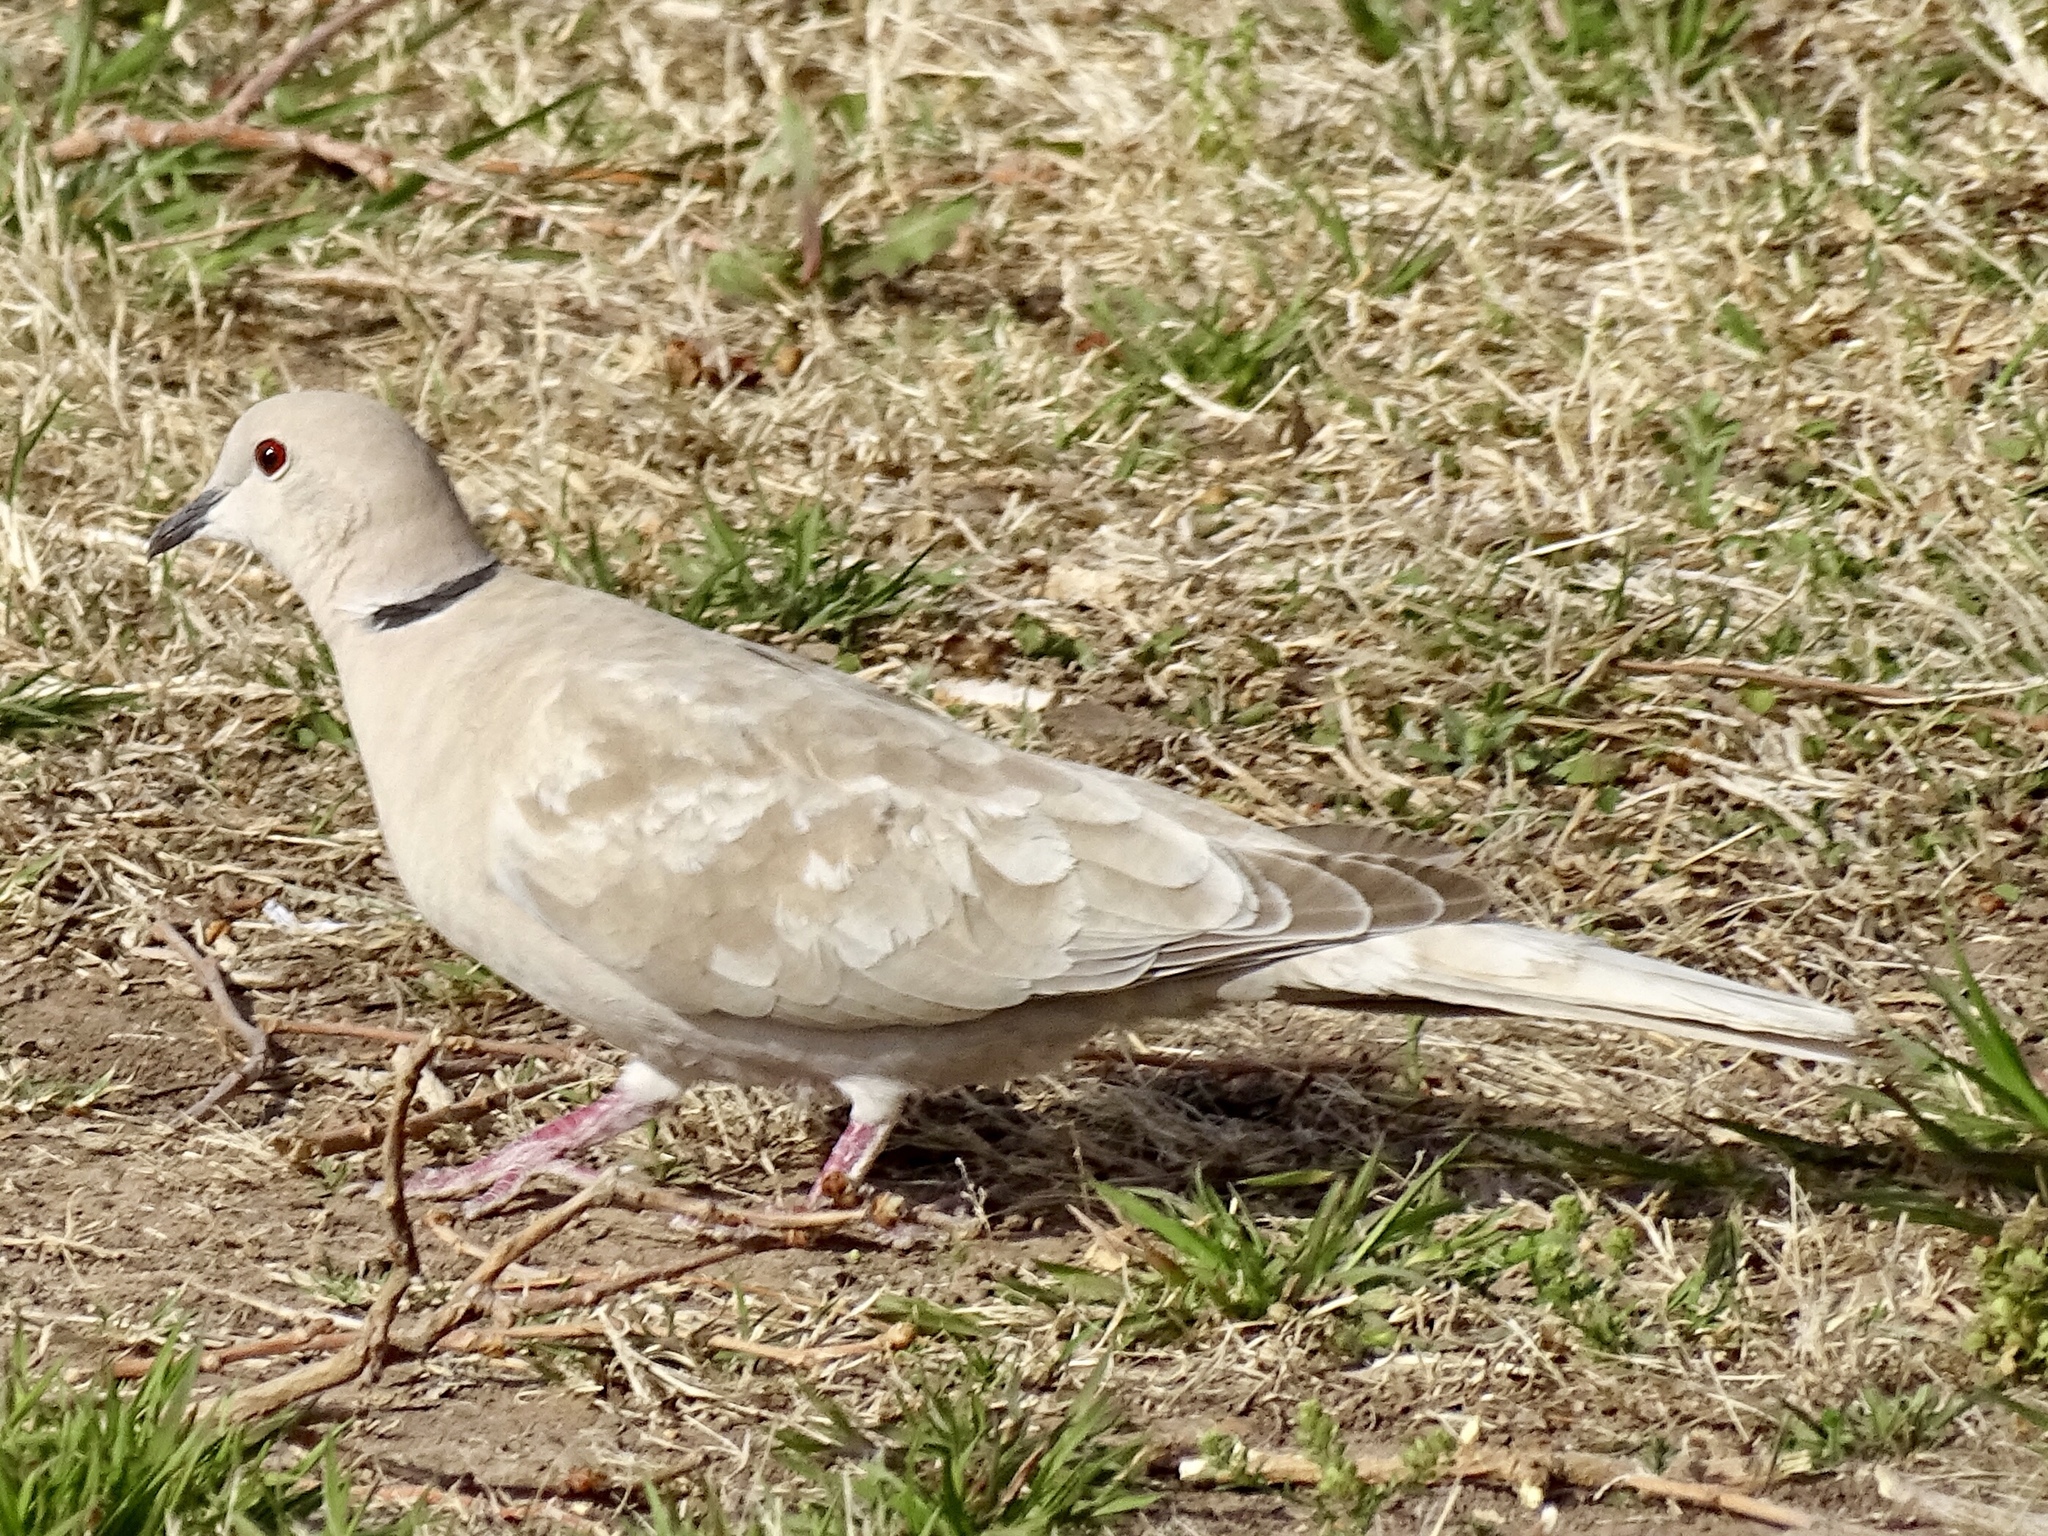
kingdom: Animalia
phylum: Chordata
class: Aves
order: Columbiformes
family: Columbidae
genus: Streptopelia
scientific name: Streptopelia decaocto
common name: Eurasian collared dove
